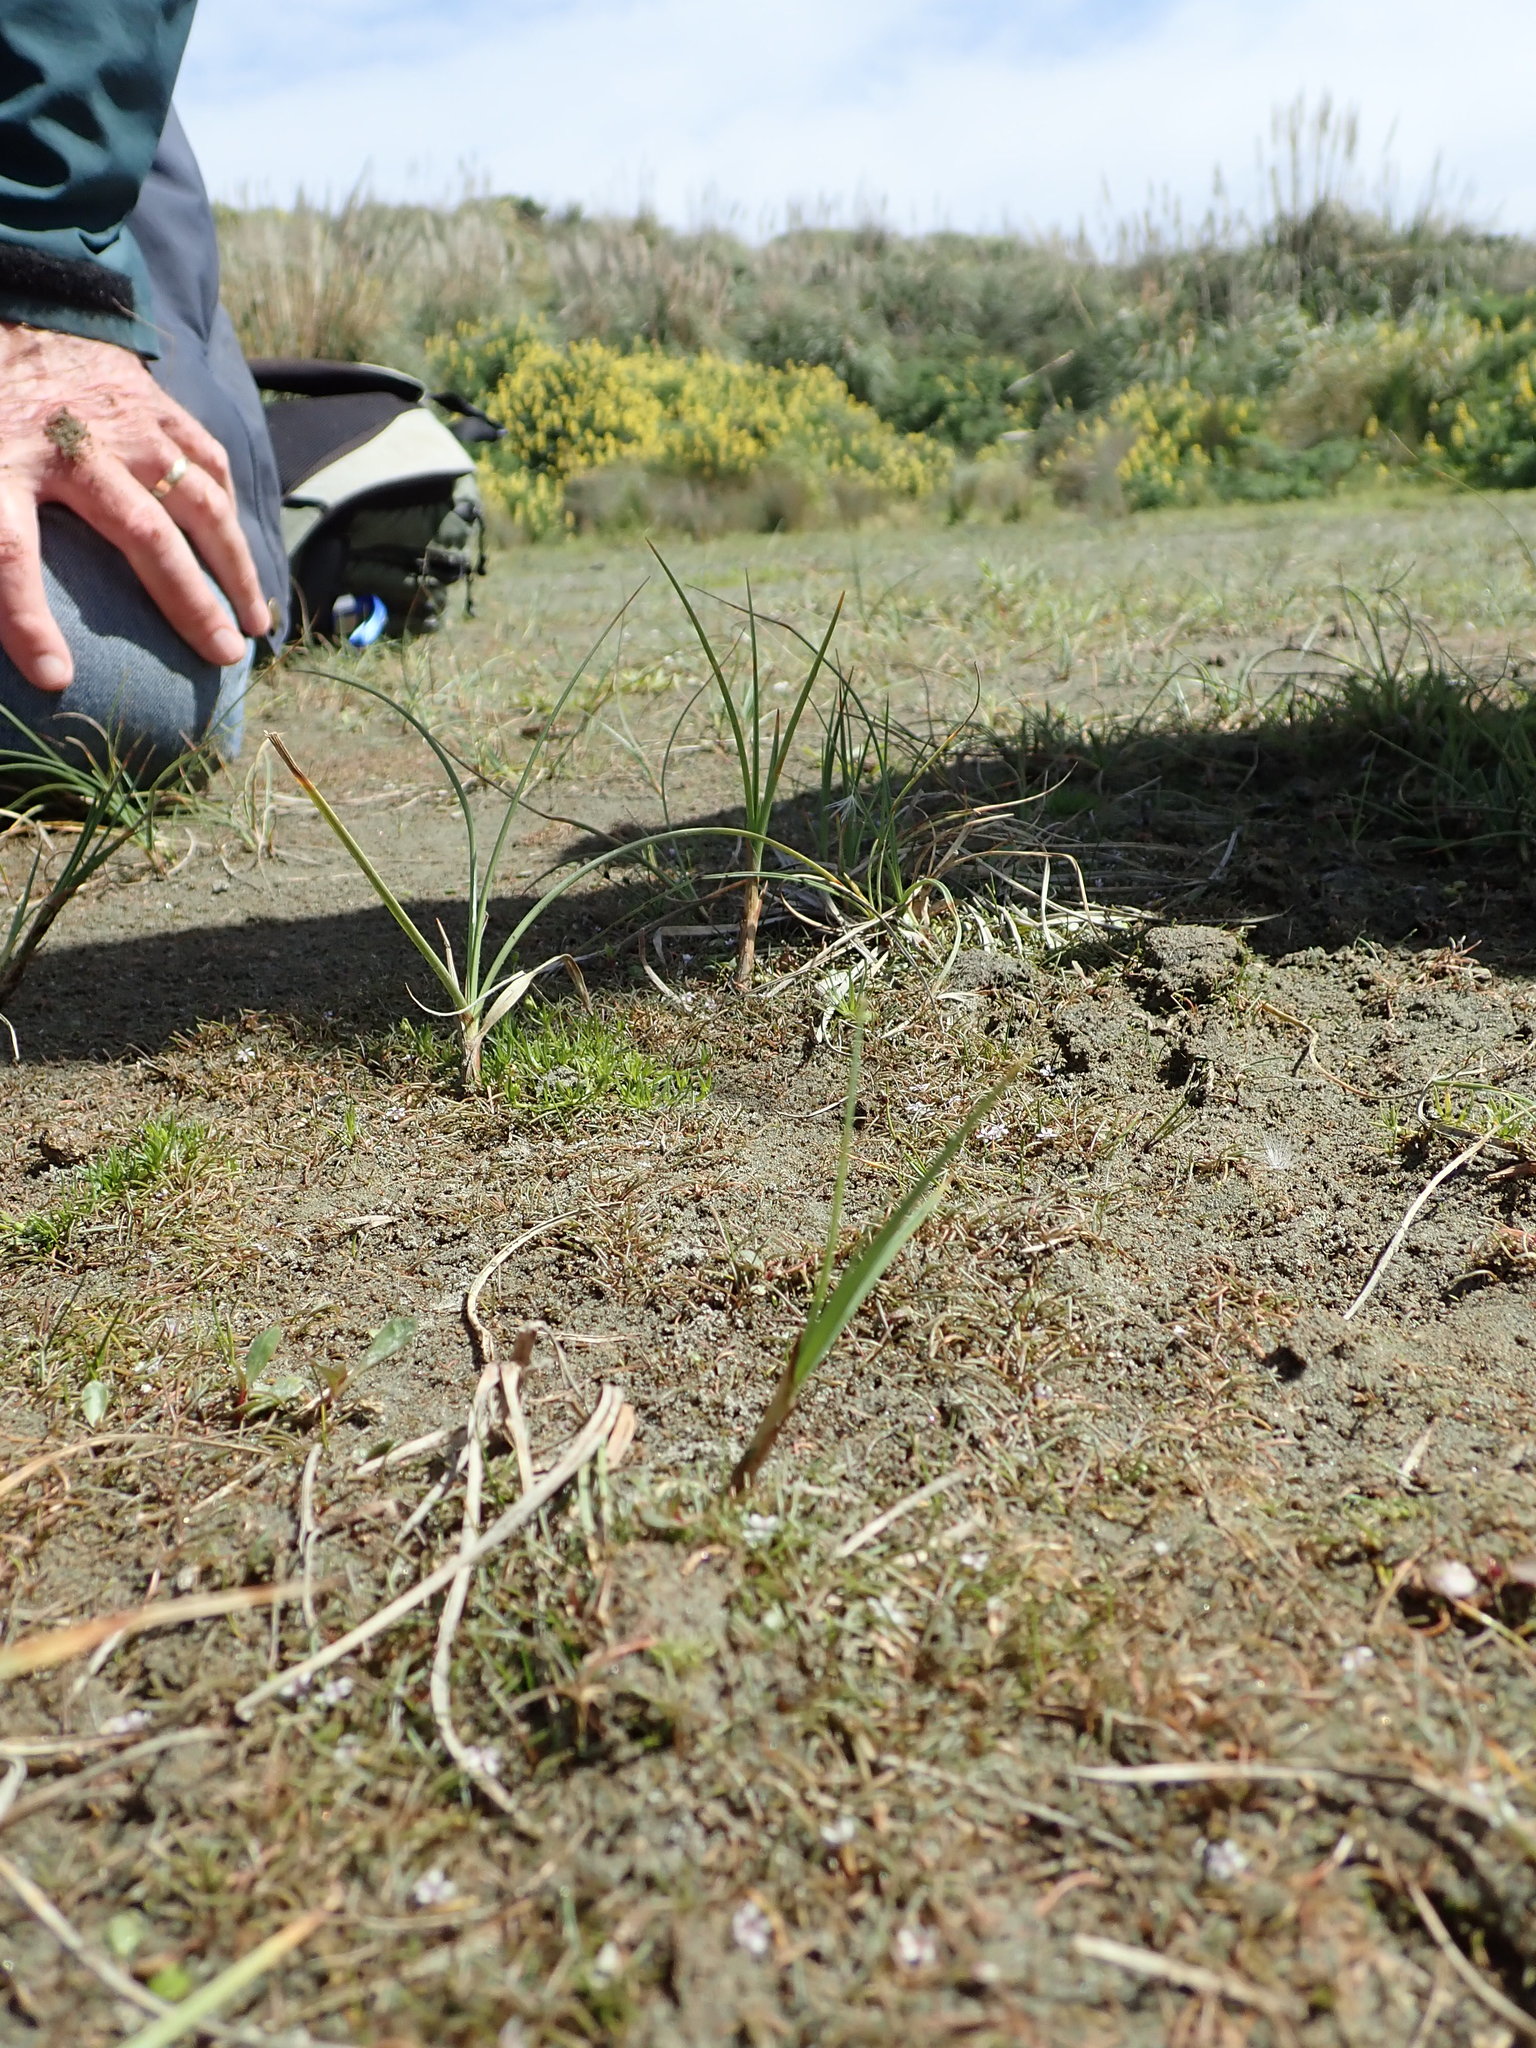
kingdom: Plantae
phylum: Tracheophyta
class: Magnoliopsida
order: Lamiales
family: Scrophulariaceae
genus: Limosella
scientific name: Limosella australis
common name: Welsh mudwort
